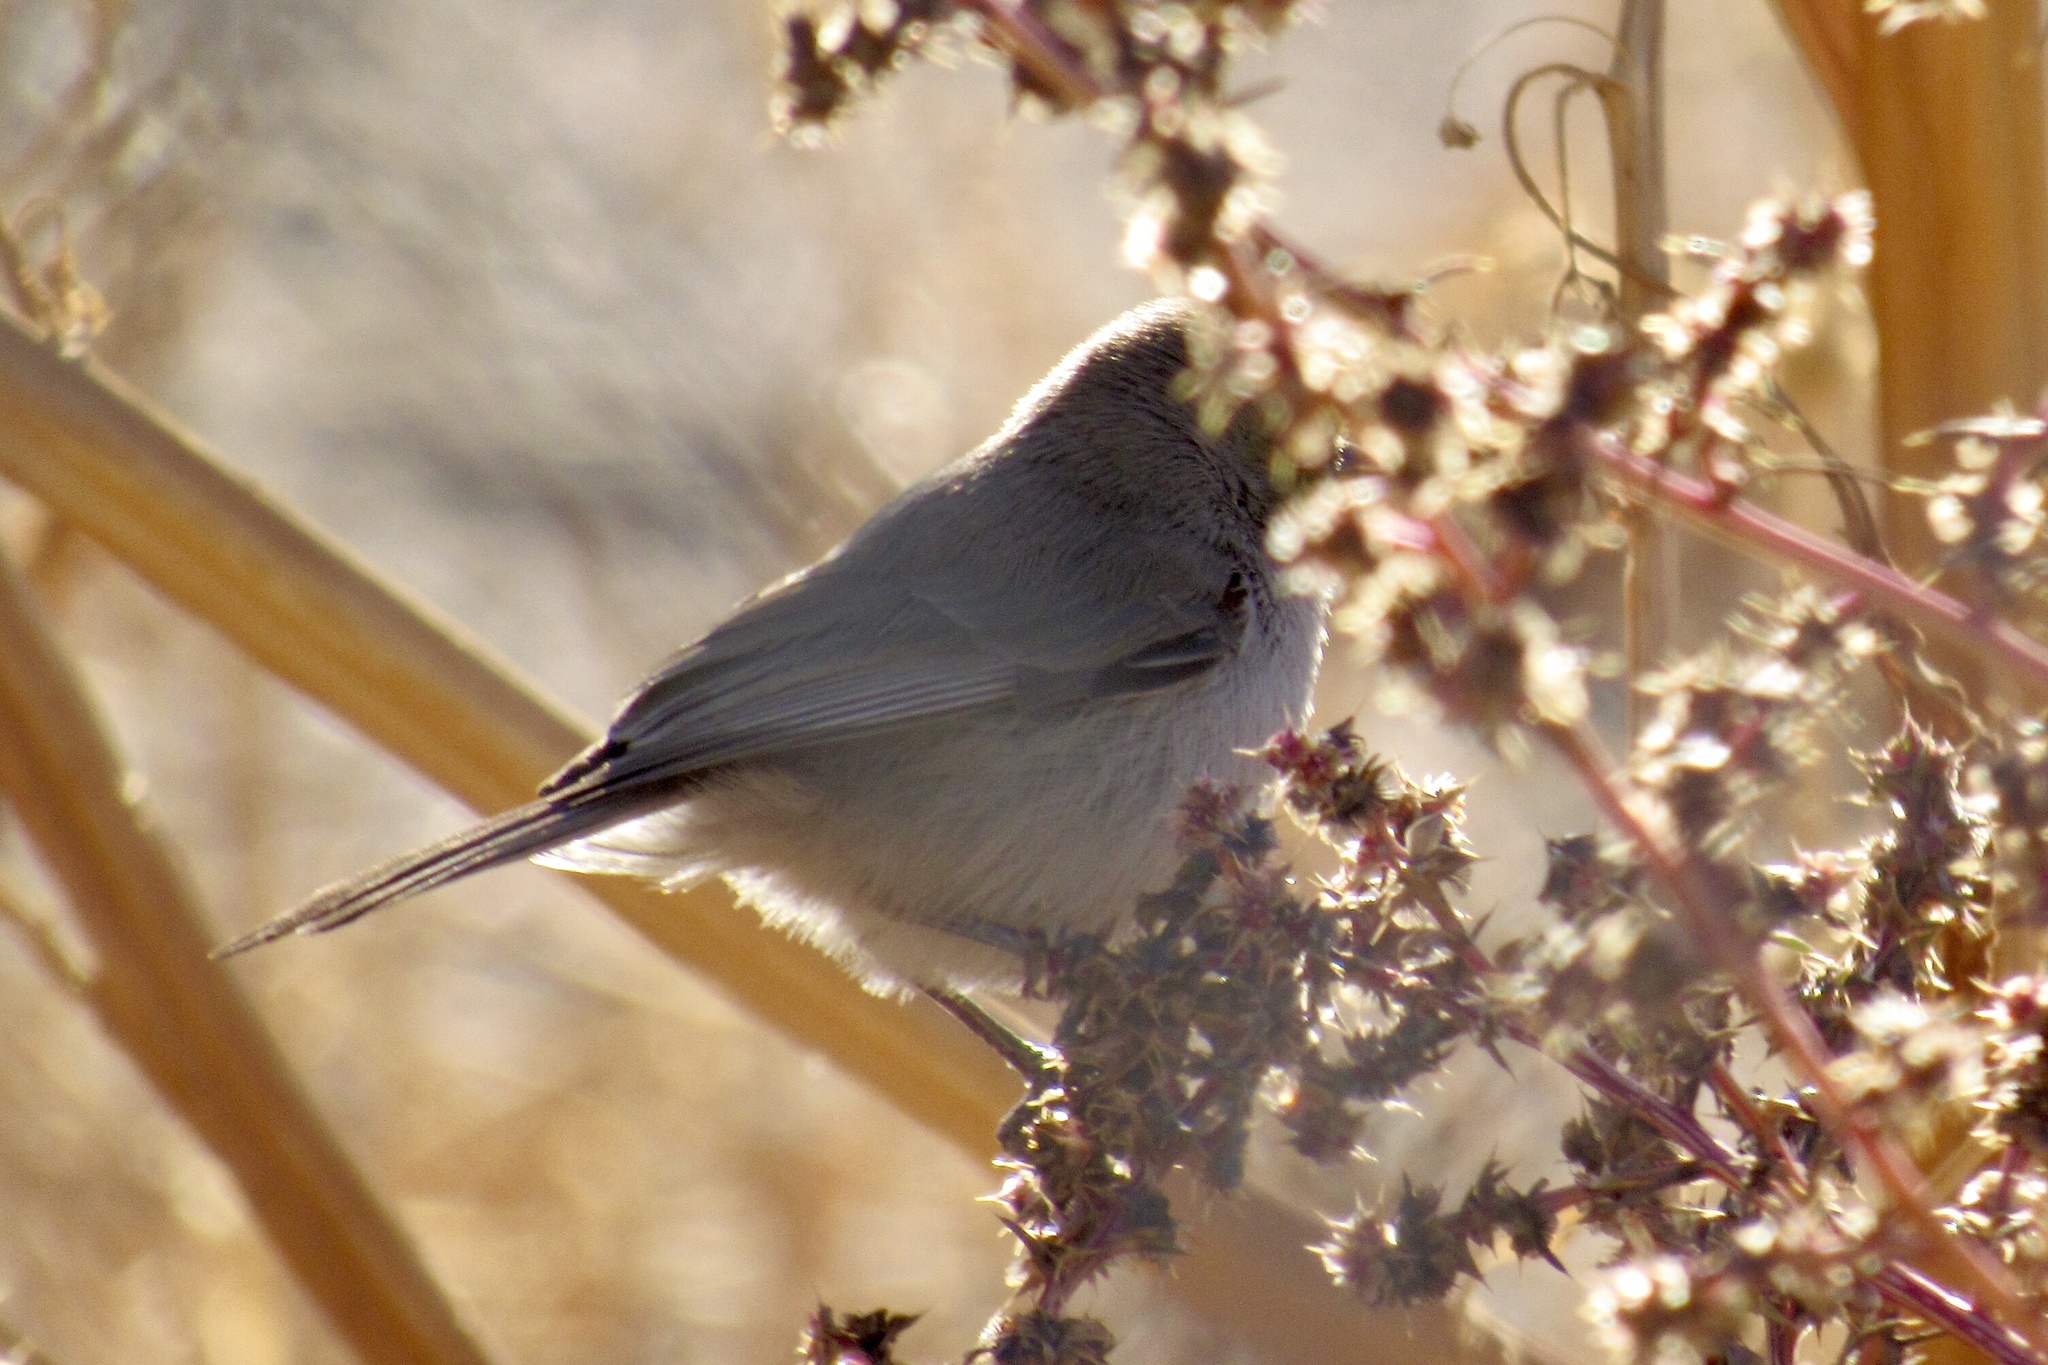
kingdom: Animalia
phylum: Chordata
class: Aves
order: Passeriformes
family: Remizidae
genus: Auriparus
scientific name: Auriparus flaviceps
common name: Verdin
